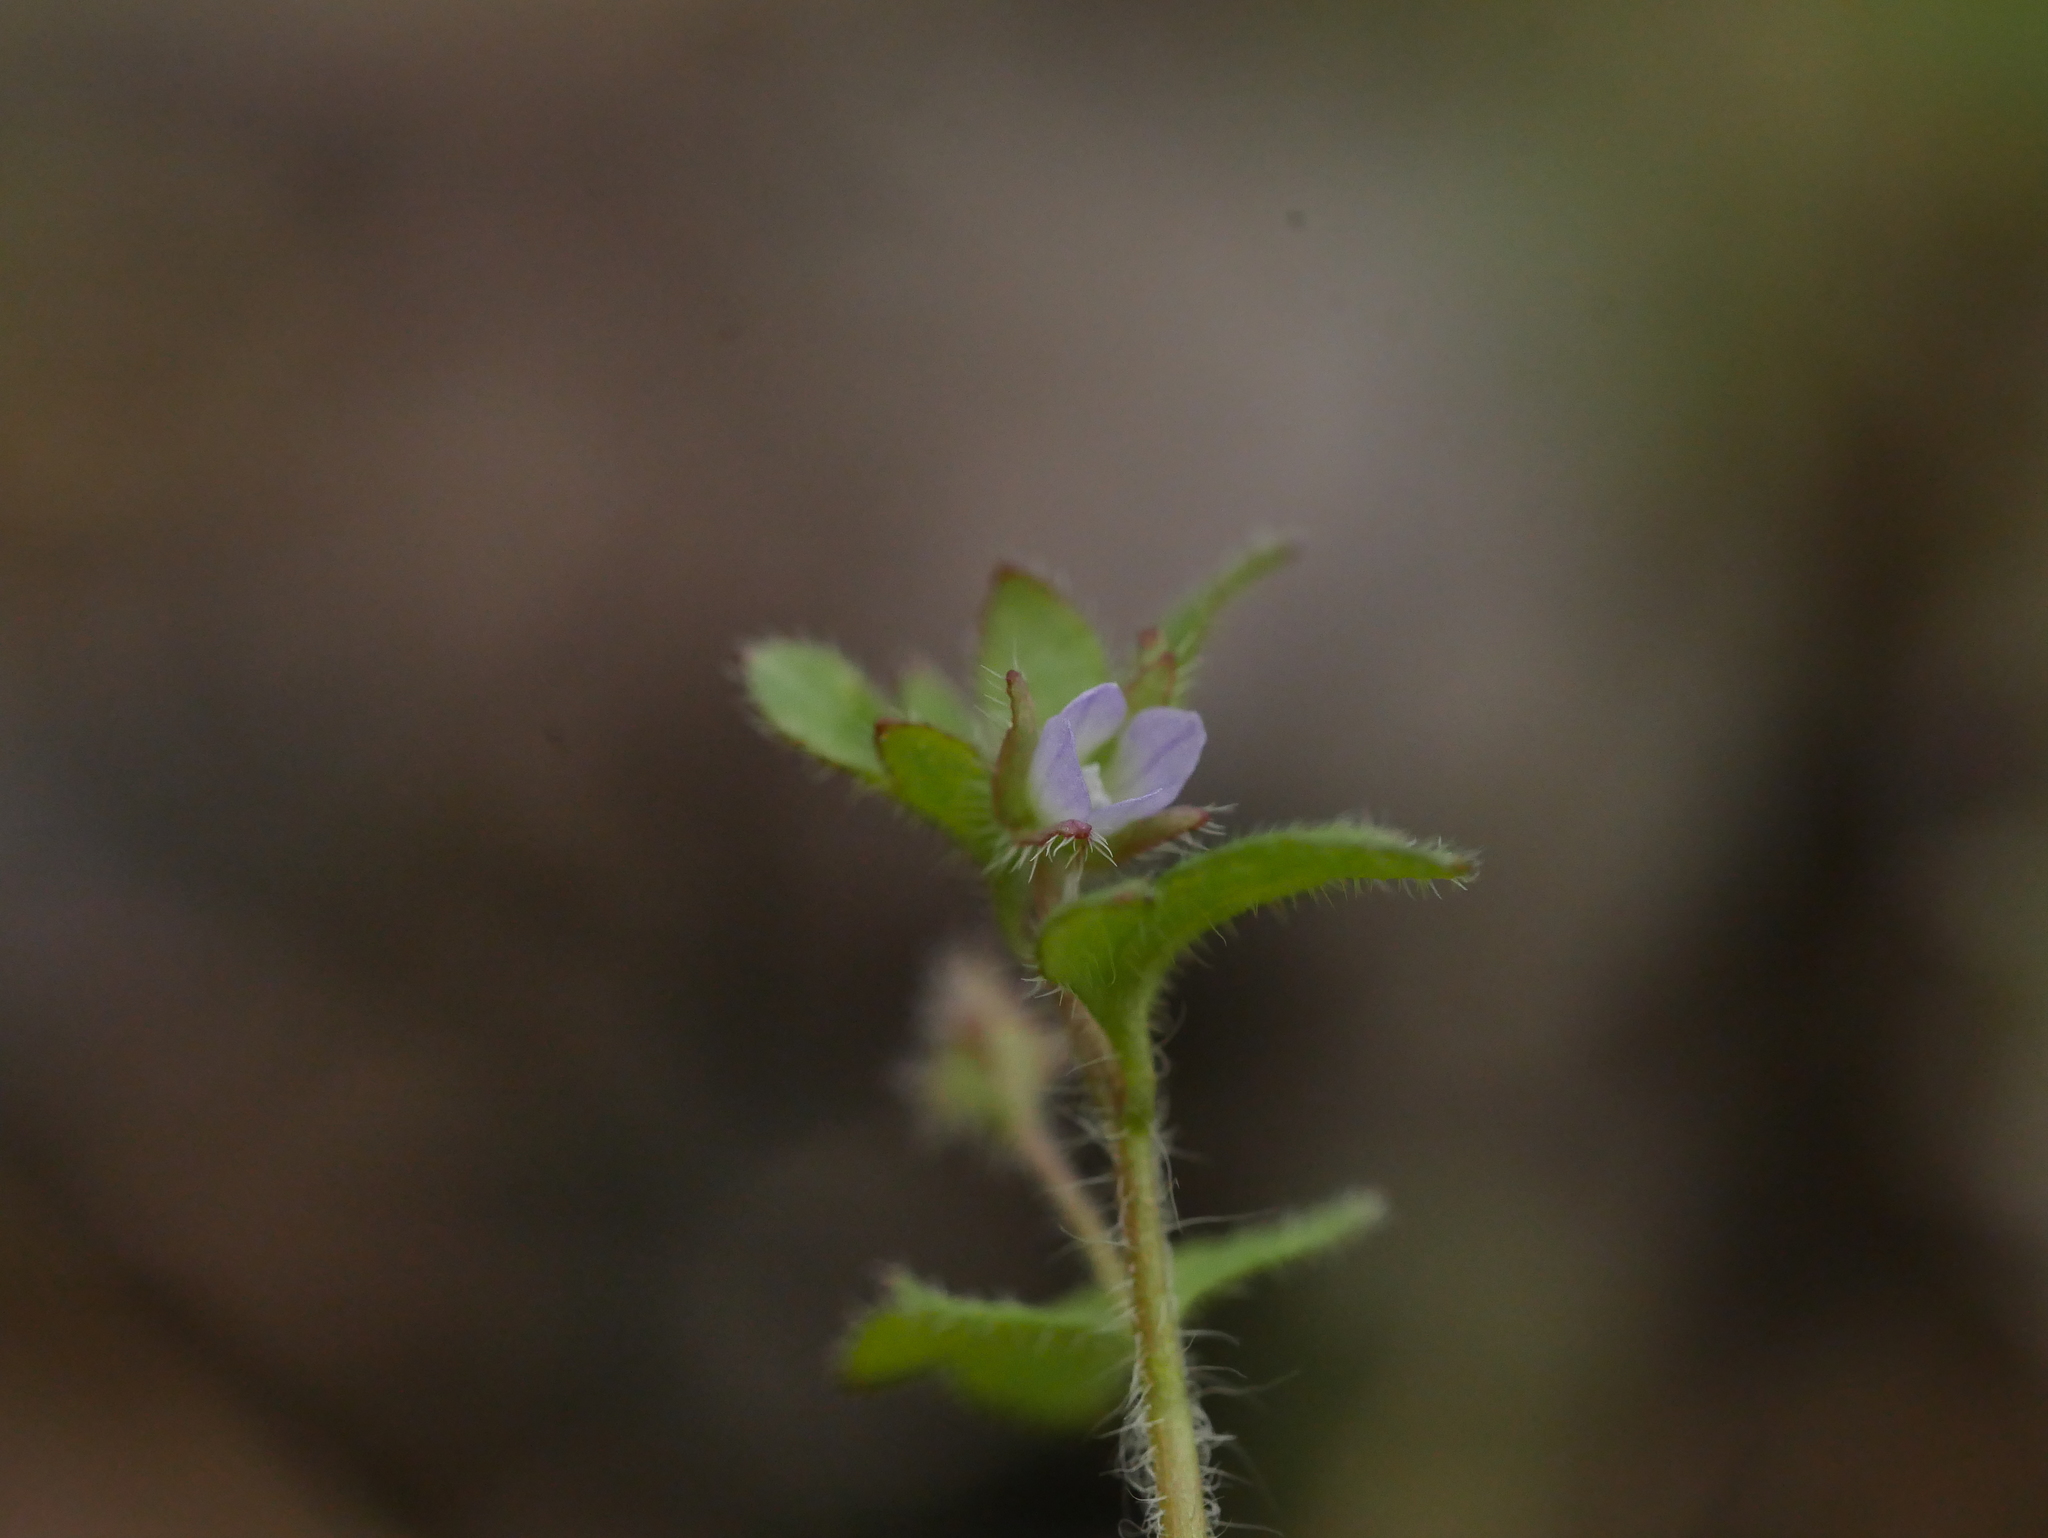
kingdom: Plantae
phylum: Tracheophyta
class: Magnoliopsida
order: Lamiales
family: Plantaginaceae
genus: Veronica
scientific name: Veronica sublobata
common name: False ivy-leaved speedwell
